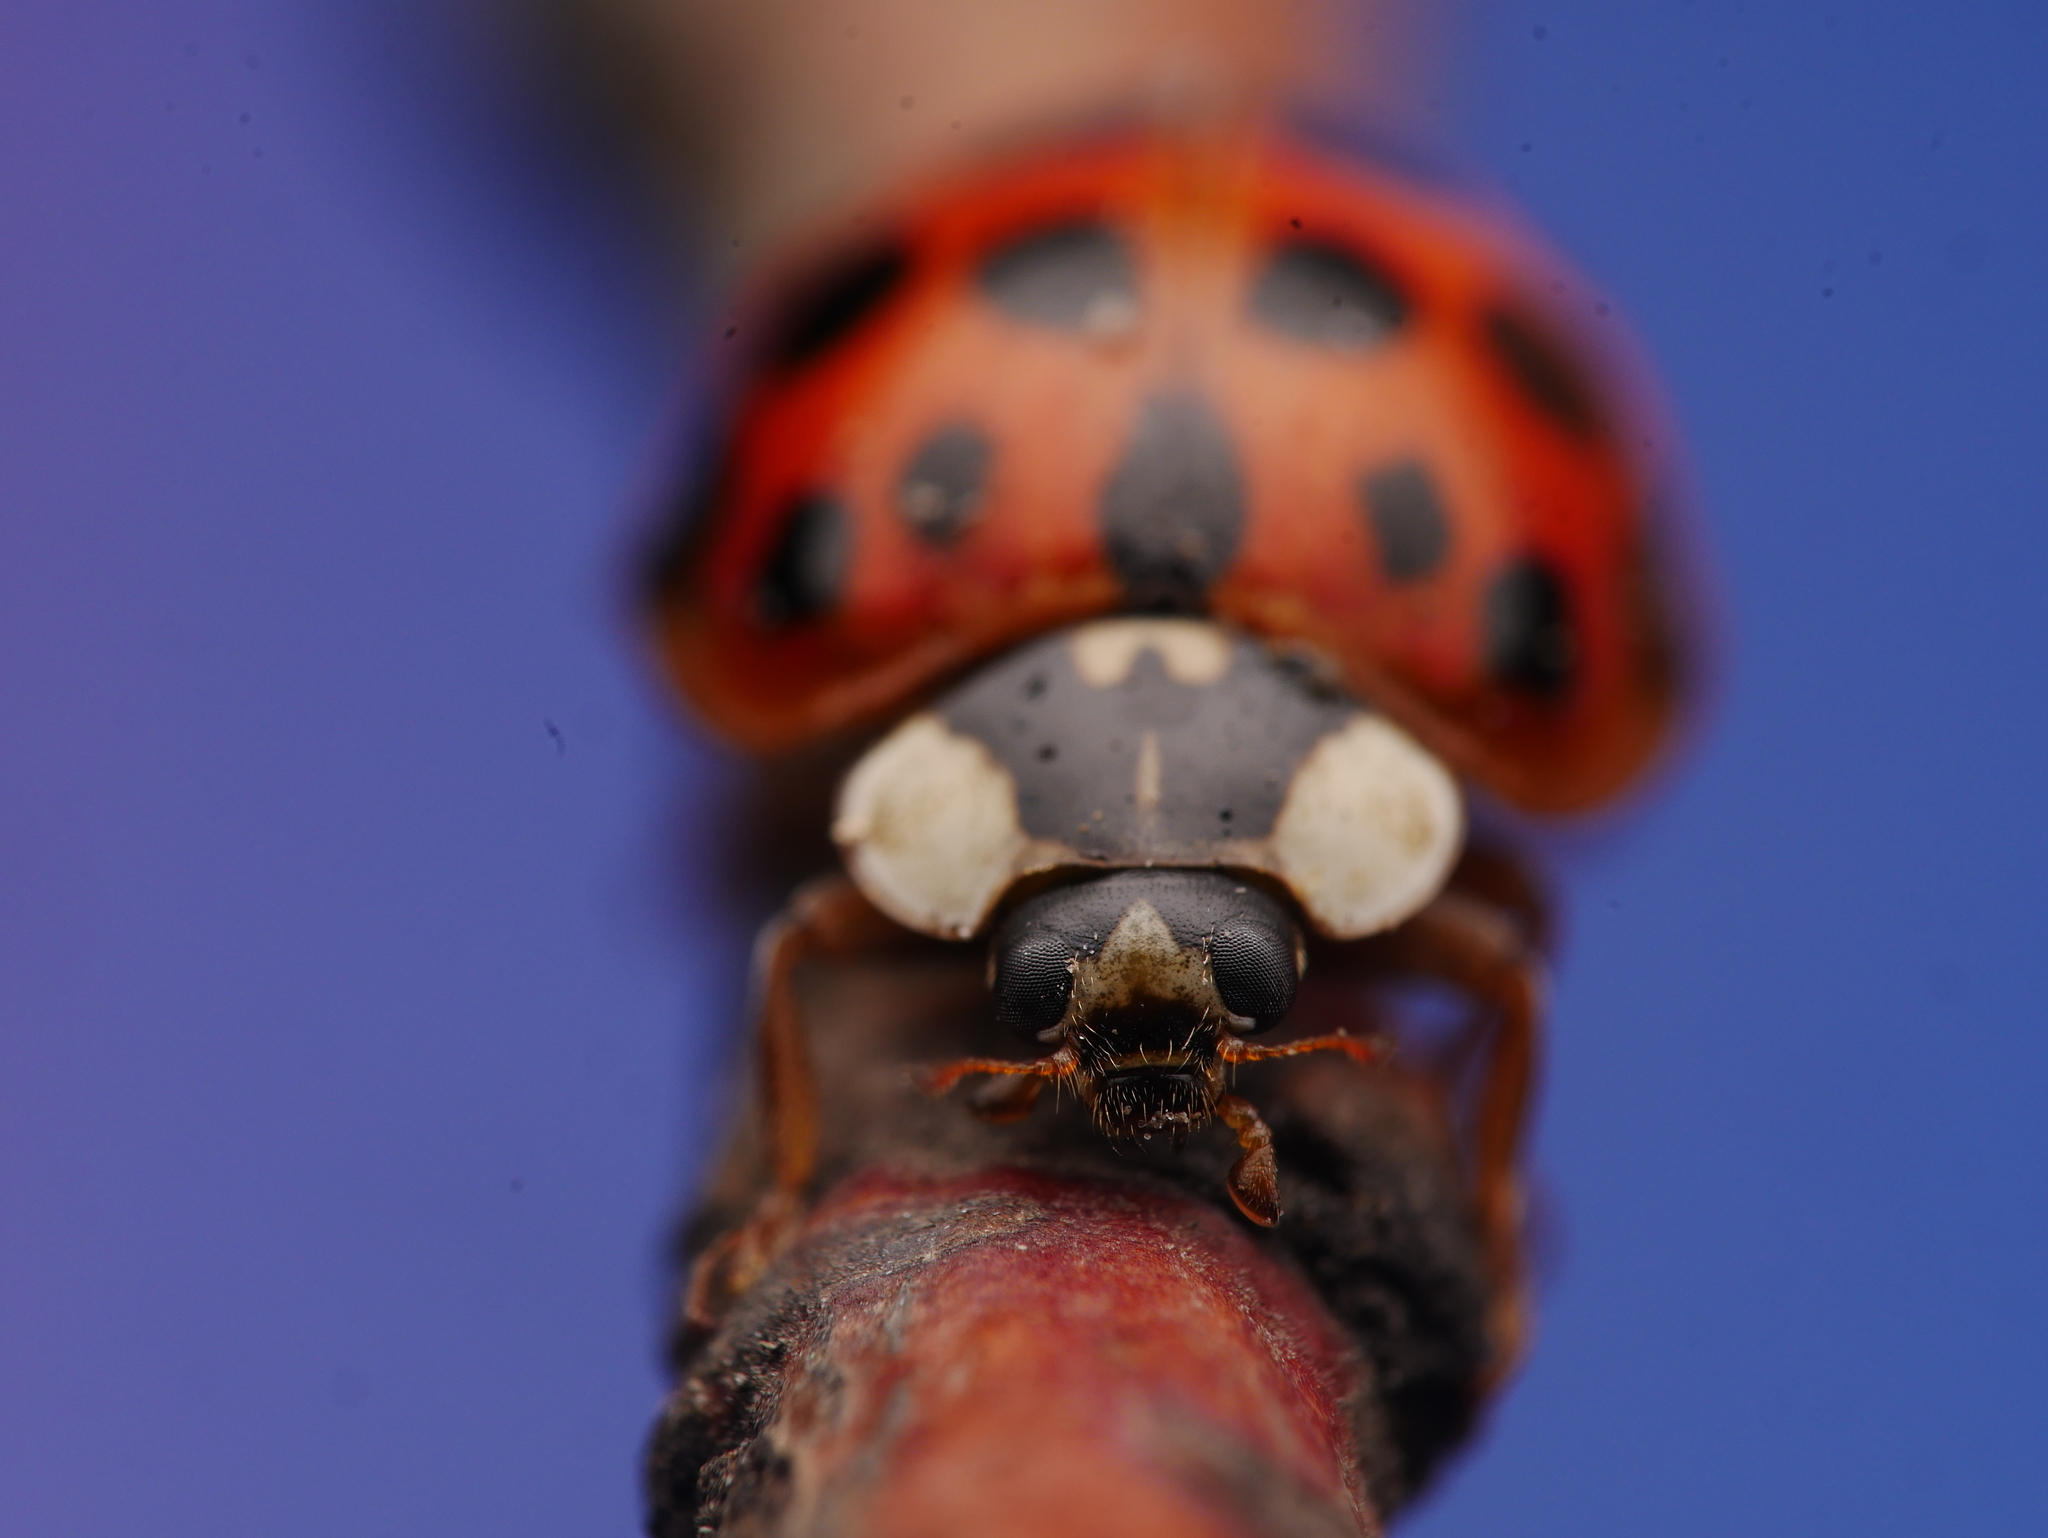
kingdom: Animalia
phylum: Arthropoda
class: Insecta
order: Coleoptera
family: Coccinellidae
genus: Harmonia
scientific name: Harmonia axyridis
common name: Harlequin ladybird
